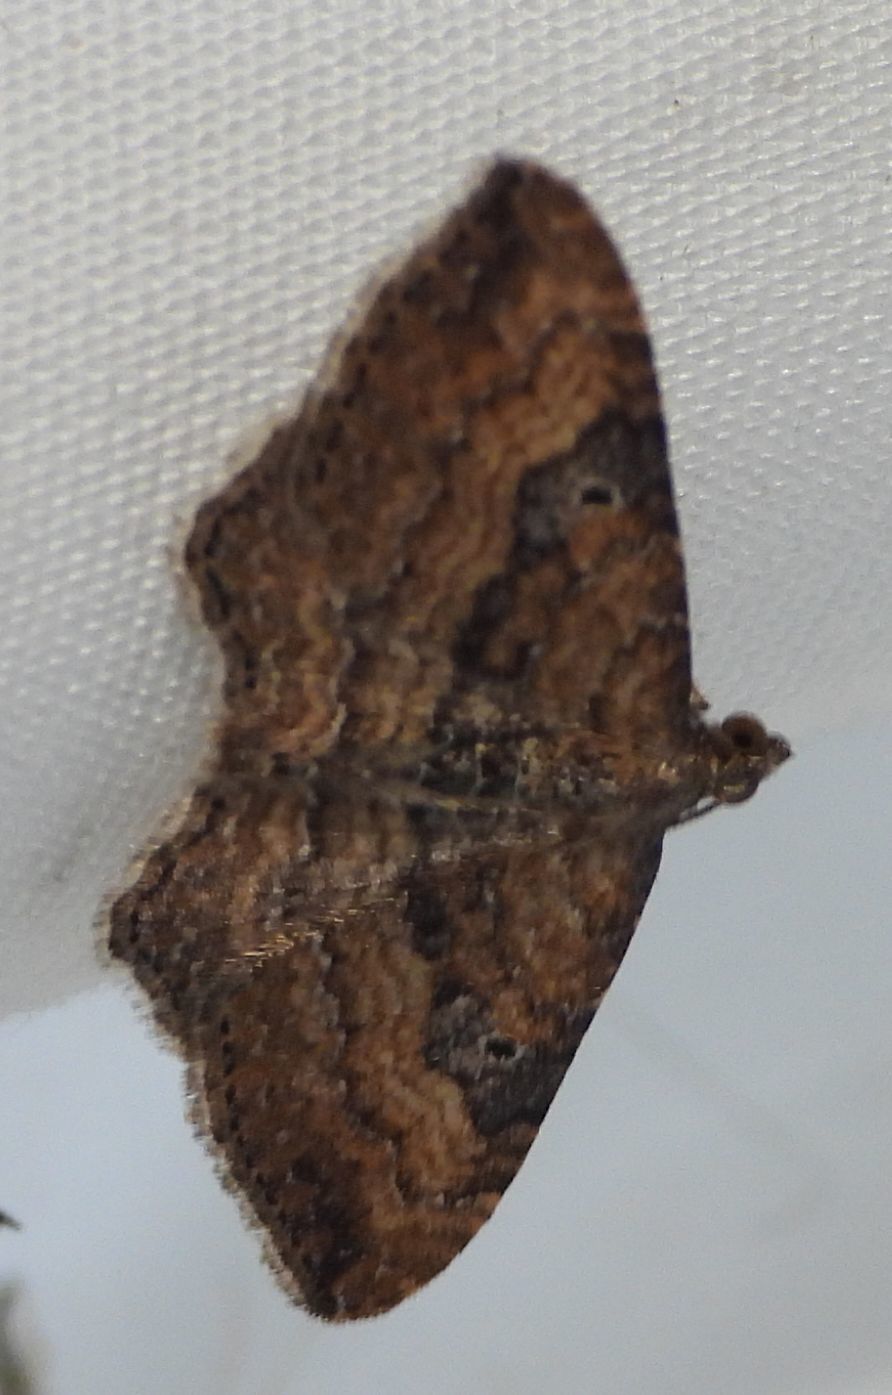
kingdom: Animalia
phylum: Arthropoda
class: Insecta
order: Lepidoptera
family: Geometridae
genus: Orthonama
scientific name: Orthonama obstipata
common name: The gem
